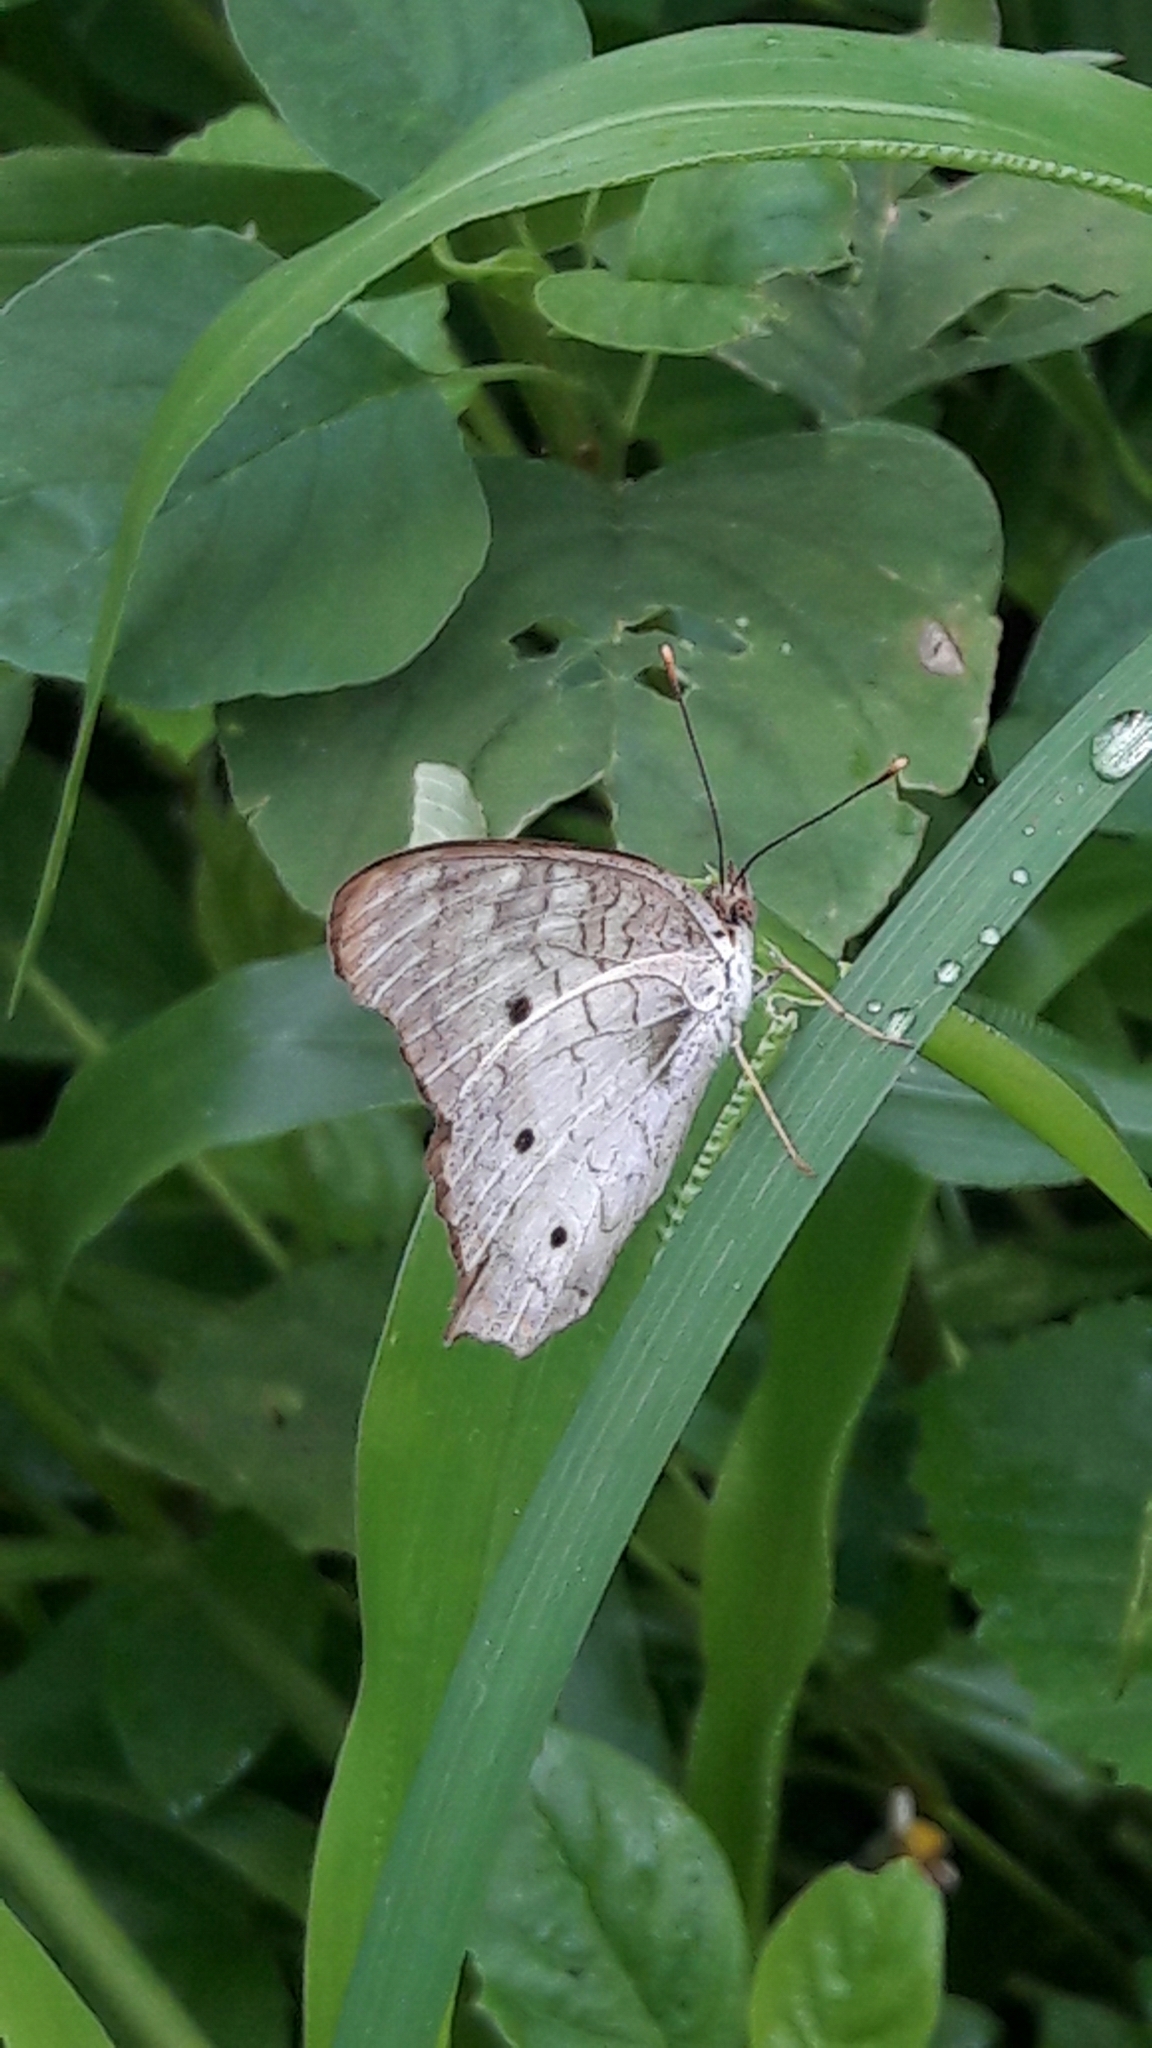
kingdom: Animalia
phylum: Arthropoda
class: Insecta
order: Lepidoptera
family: Nymphalidae
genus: Anartia
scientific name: Anartia jatrophae
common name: White peacock
